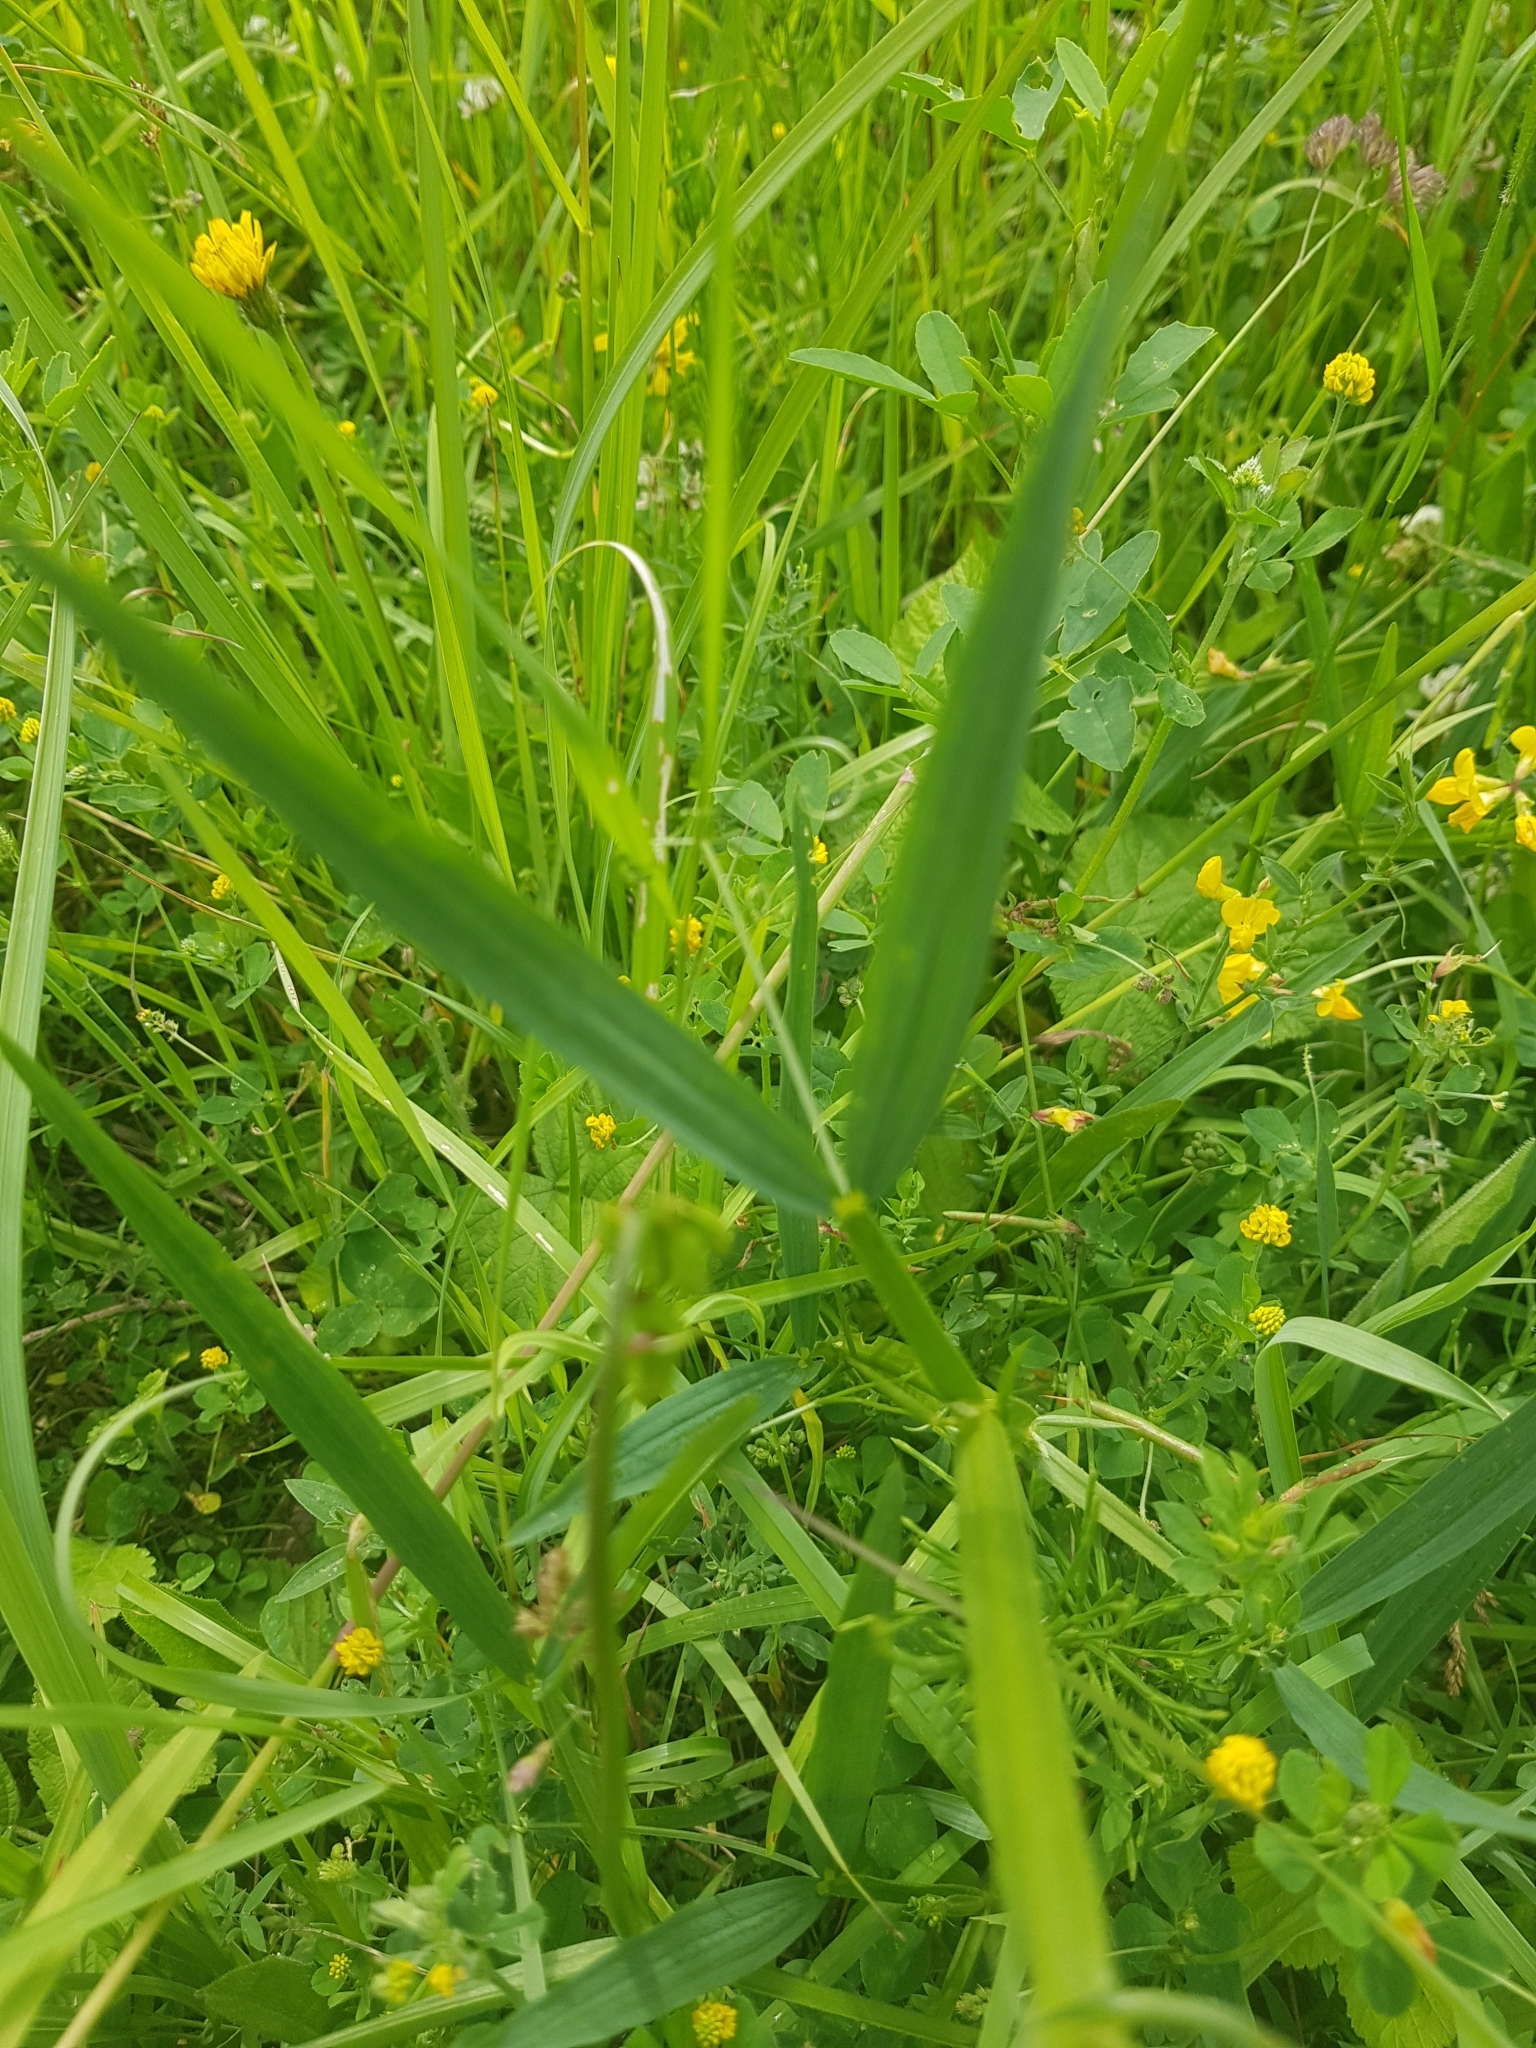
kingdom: Plantae
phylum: Tracheophyta
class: Magnoliopsida
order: Fabales
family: Fabaceae
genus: Lathyrus
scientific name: Lathyrus sylvestris
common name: Flat pea
